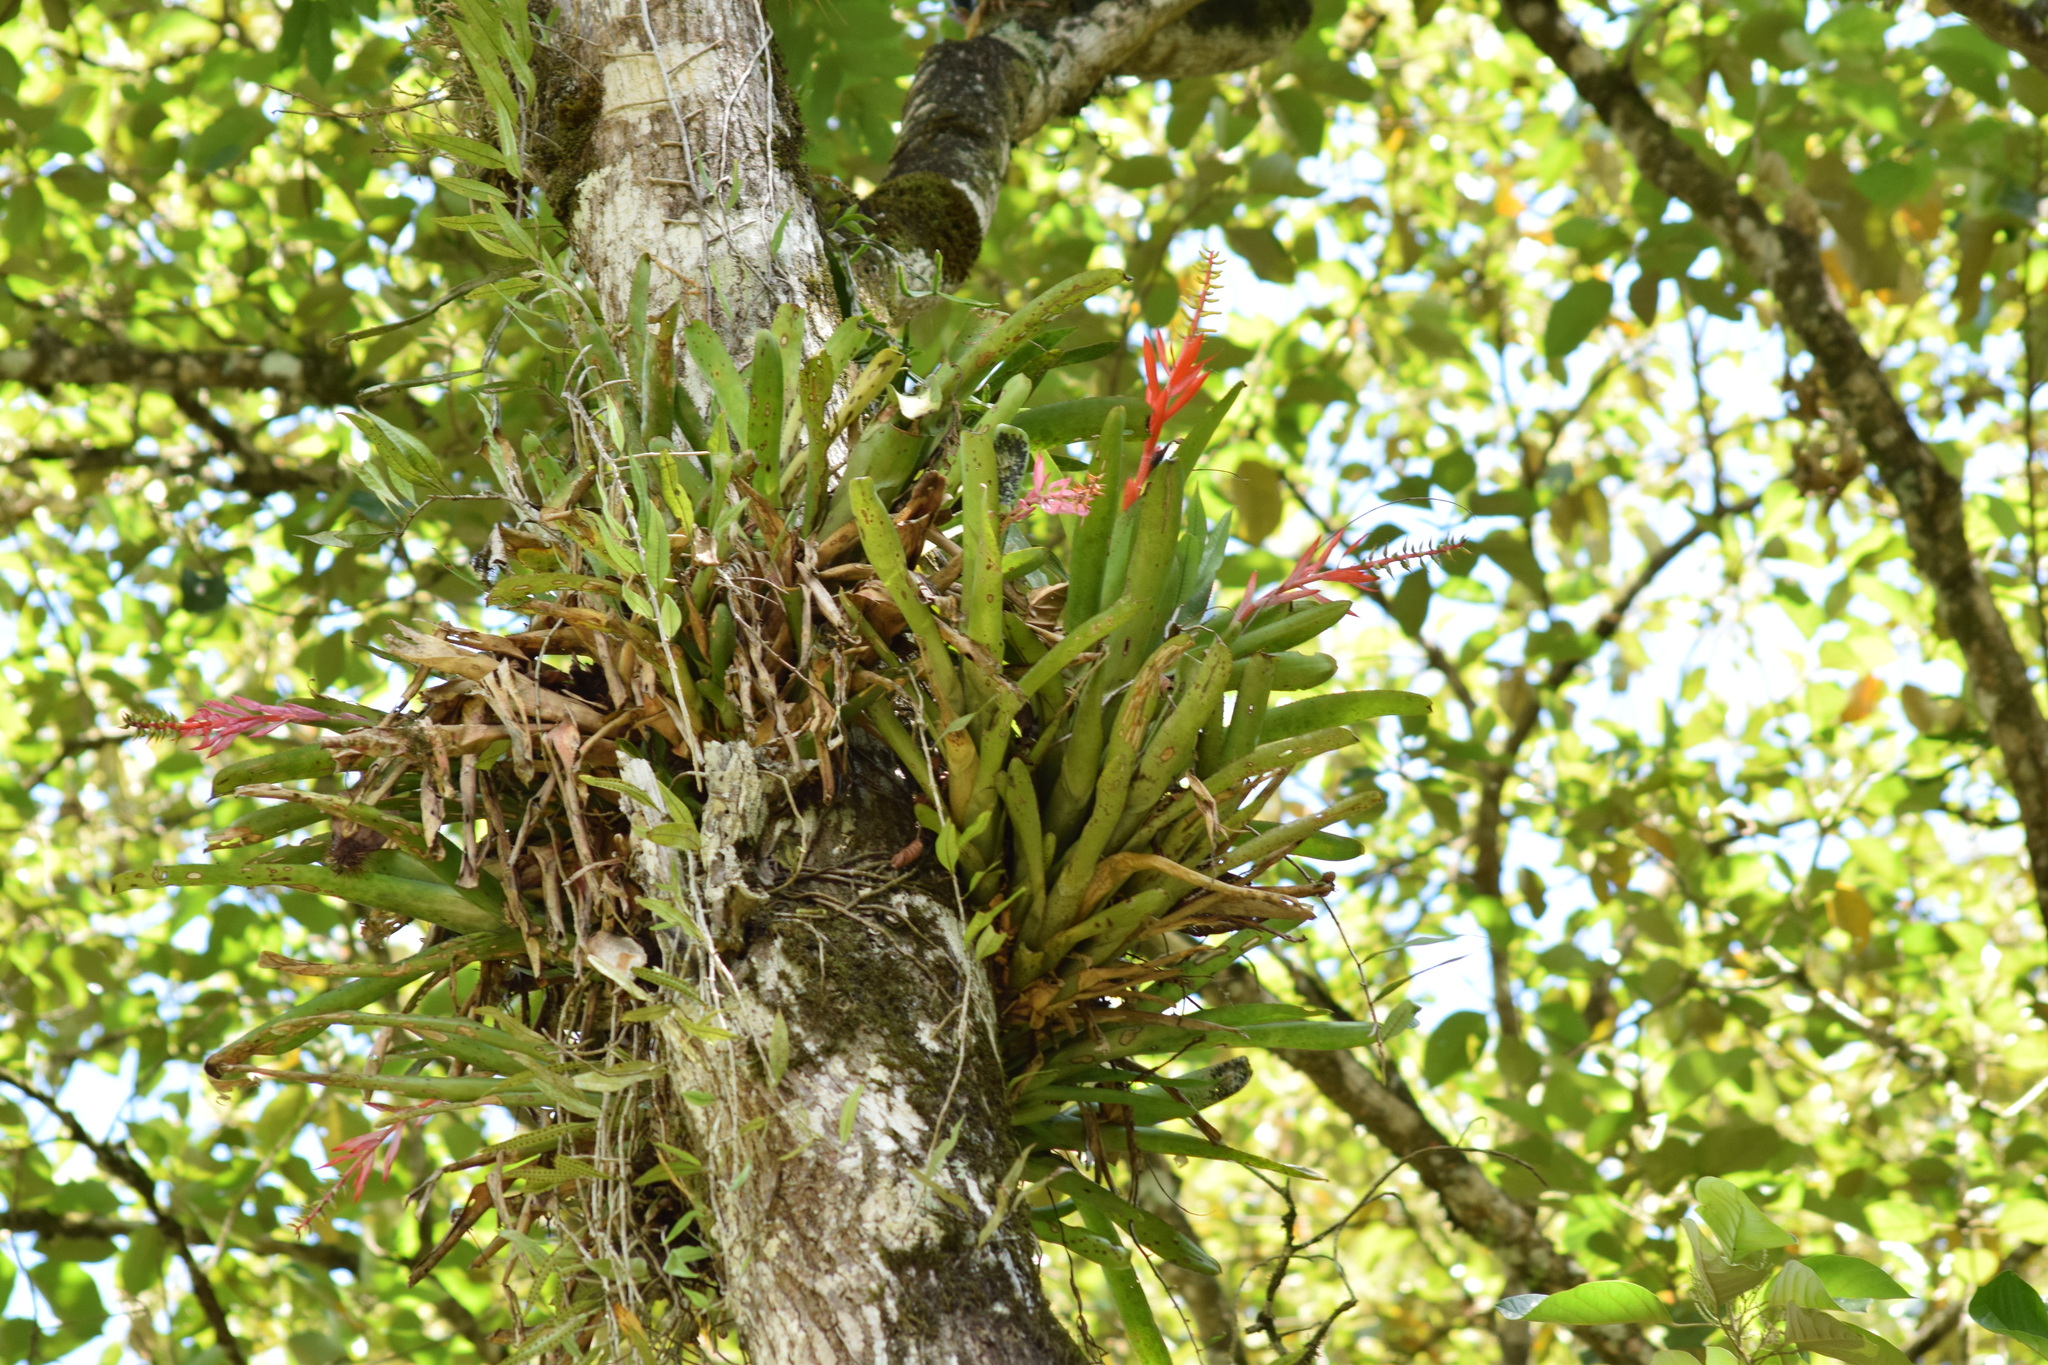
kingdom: Plantae
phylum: Tracheophyta
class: Liliopsida
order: Poales
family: Bromeliaceae
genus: Aechmea
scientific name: Aechmea nudicaulis
